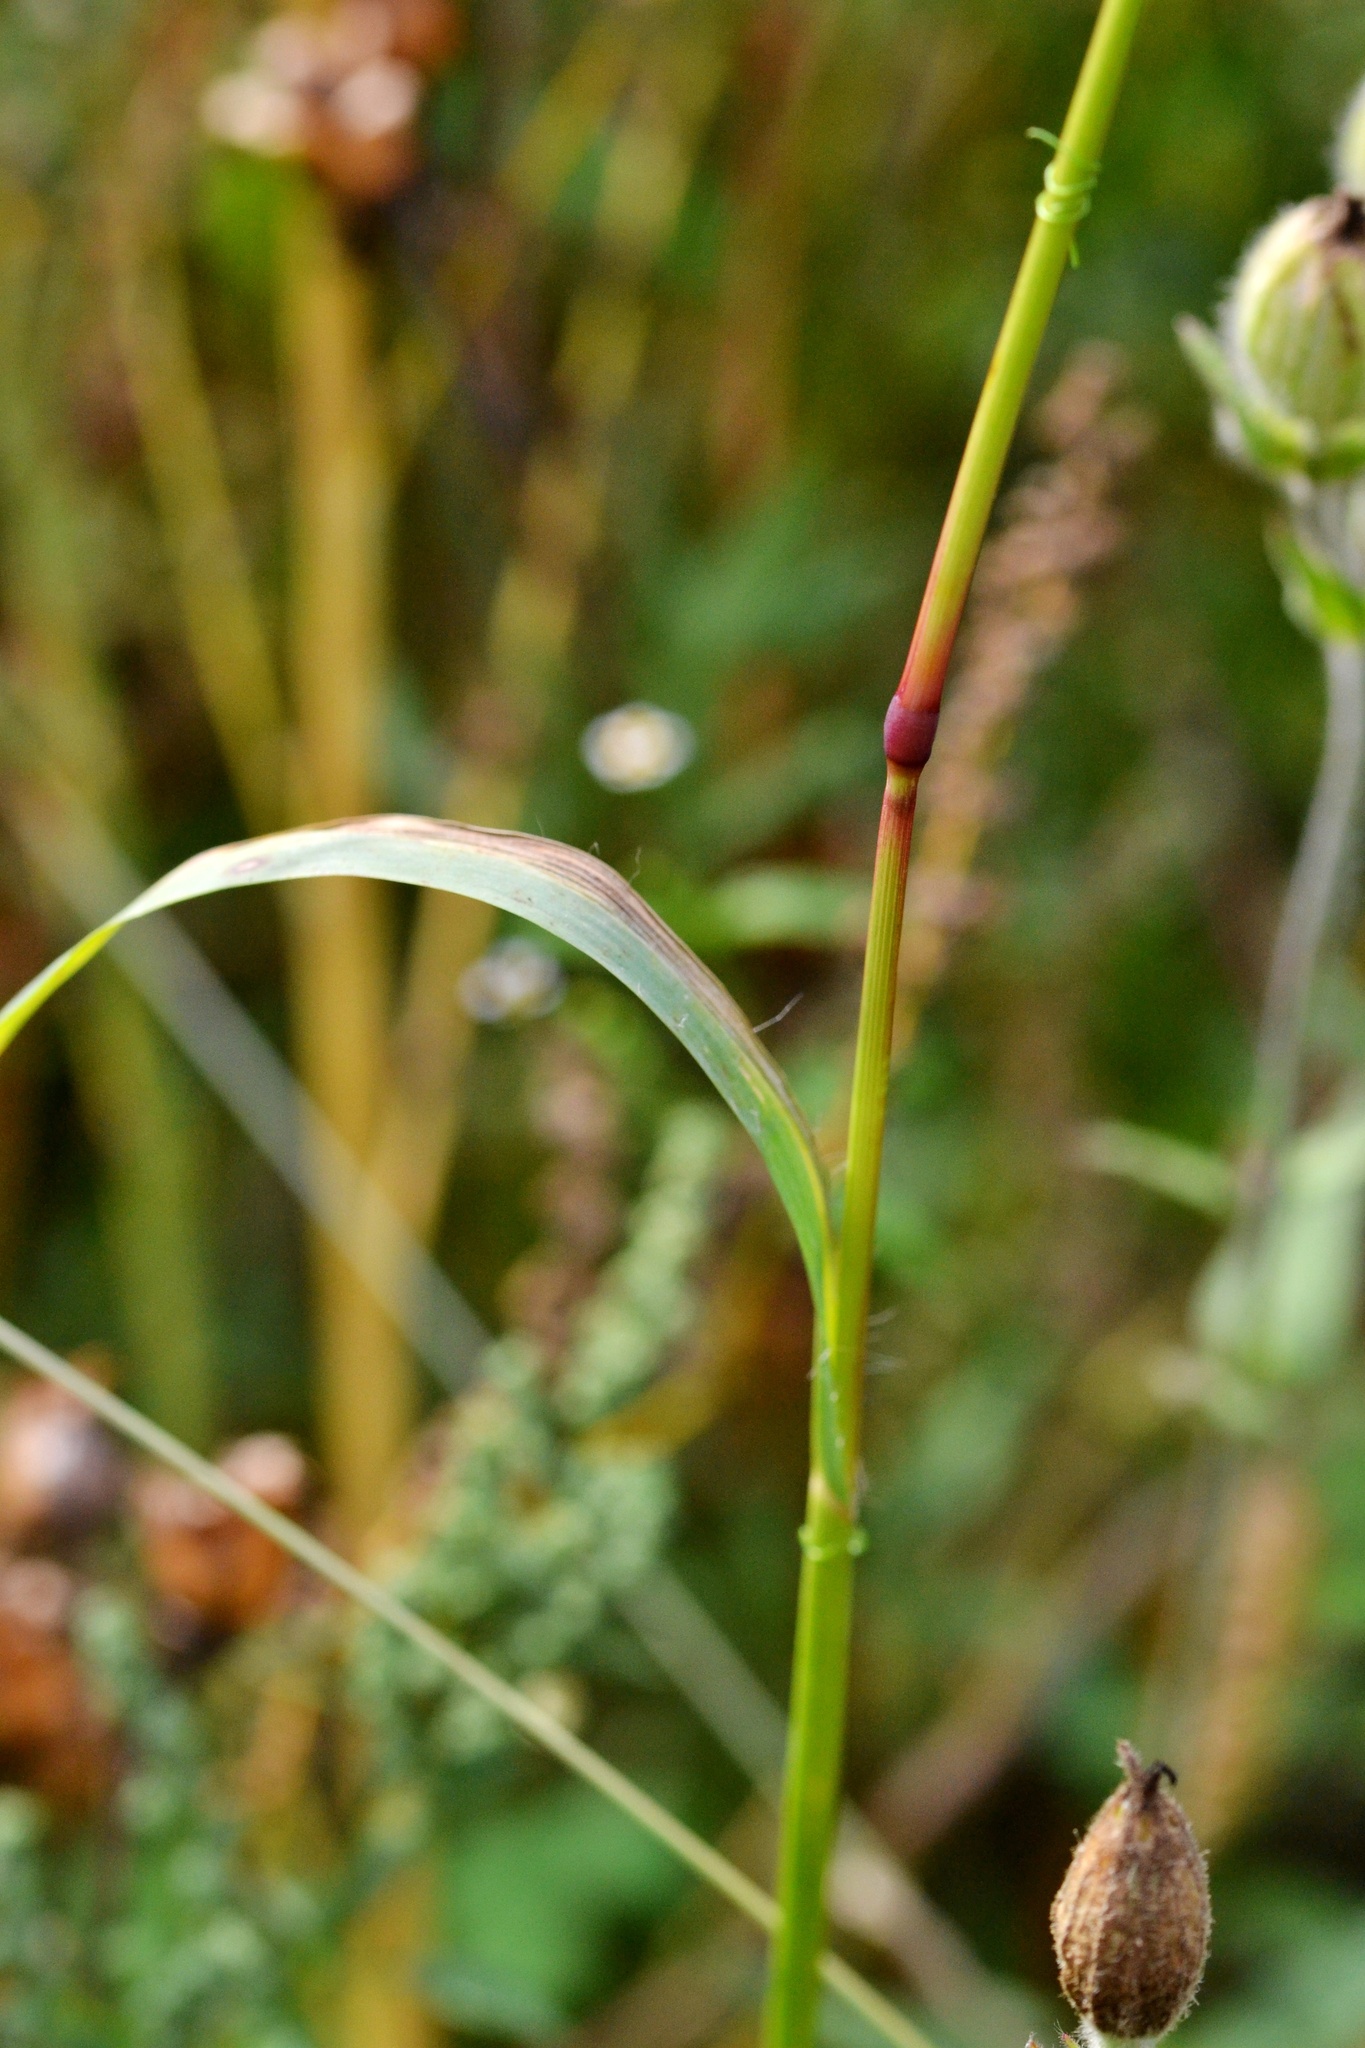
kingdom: Plantae
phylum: Tracheophyta
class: Liliopsida
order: Poales
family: Poaceae
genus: Setaria
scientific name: Setaria pumila
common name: Yellow bristle-grass
